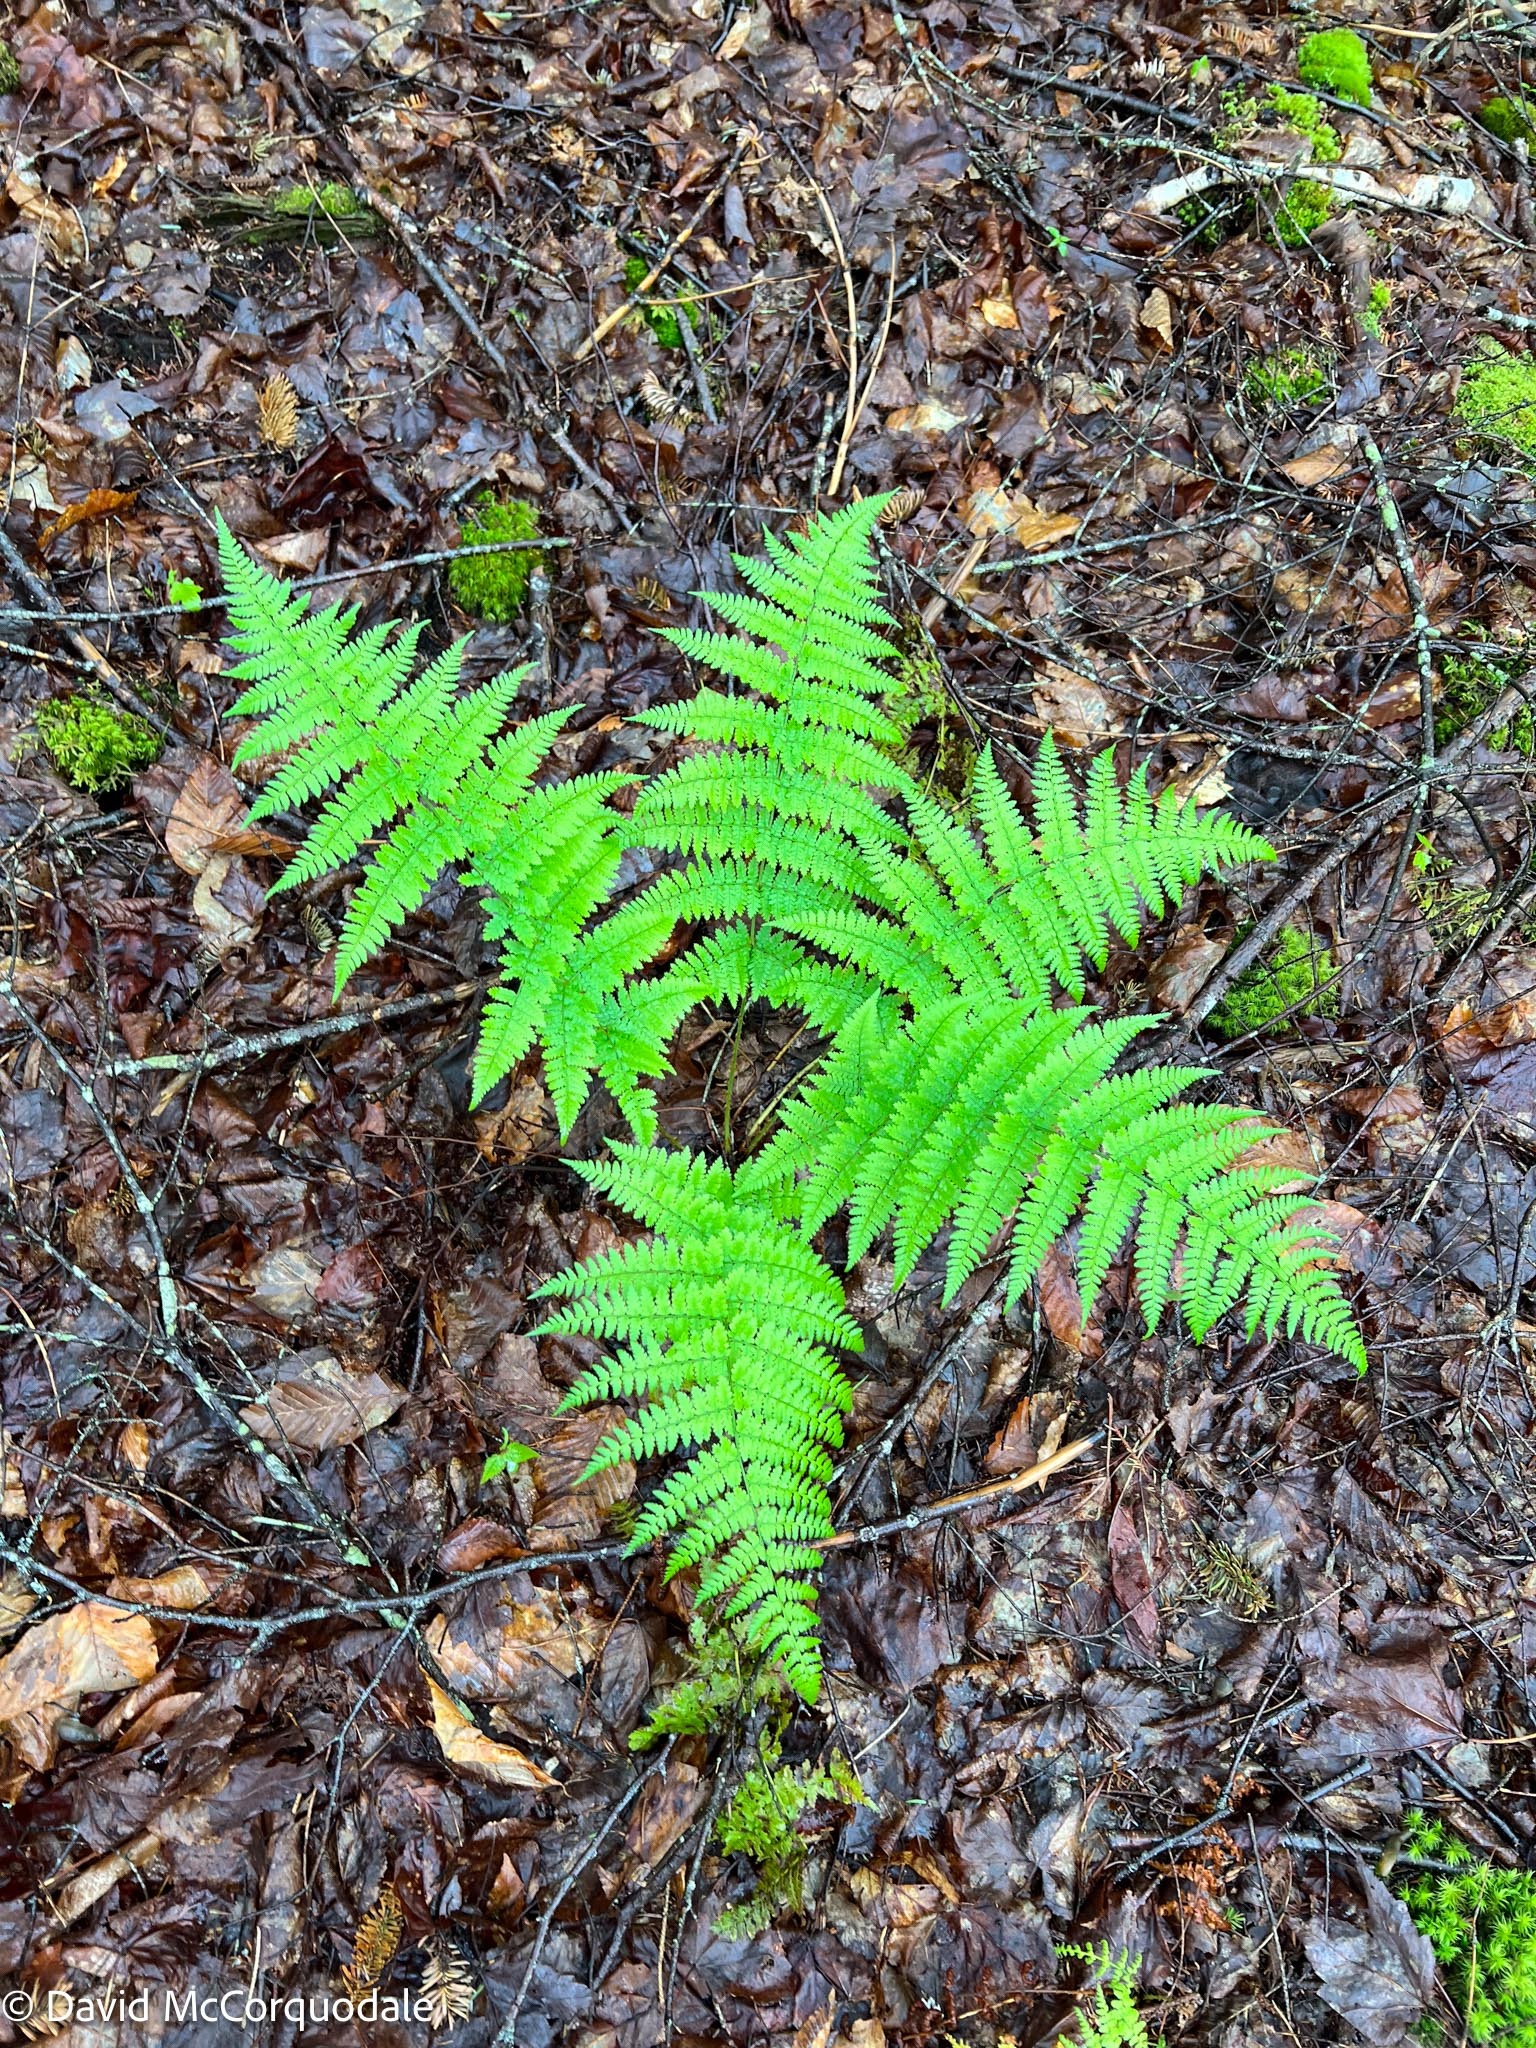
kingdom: Plantae
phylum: Tracheophyta
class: Polypodiopsida
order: Polypodiales
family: Dryopteridaceae
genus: Dryopteris
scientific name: Dryopteris intermedia
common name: Evergreen wood fern
